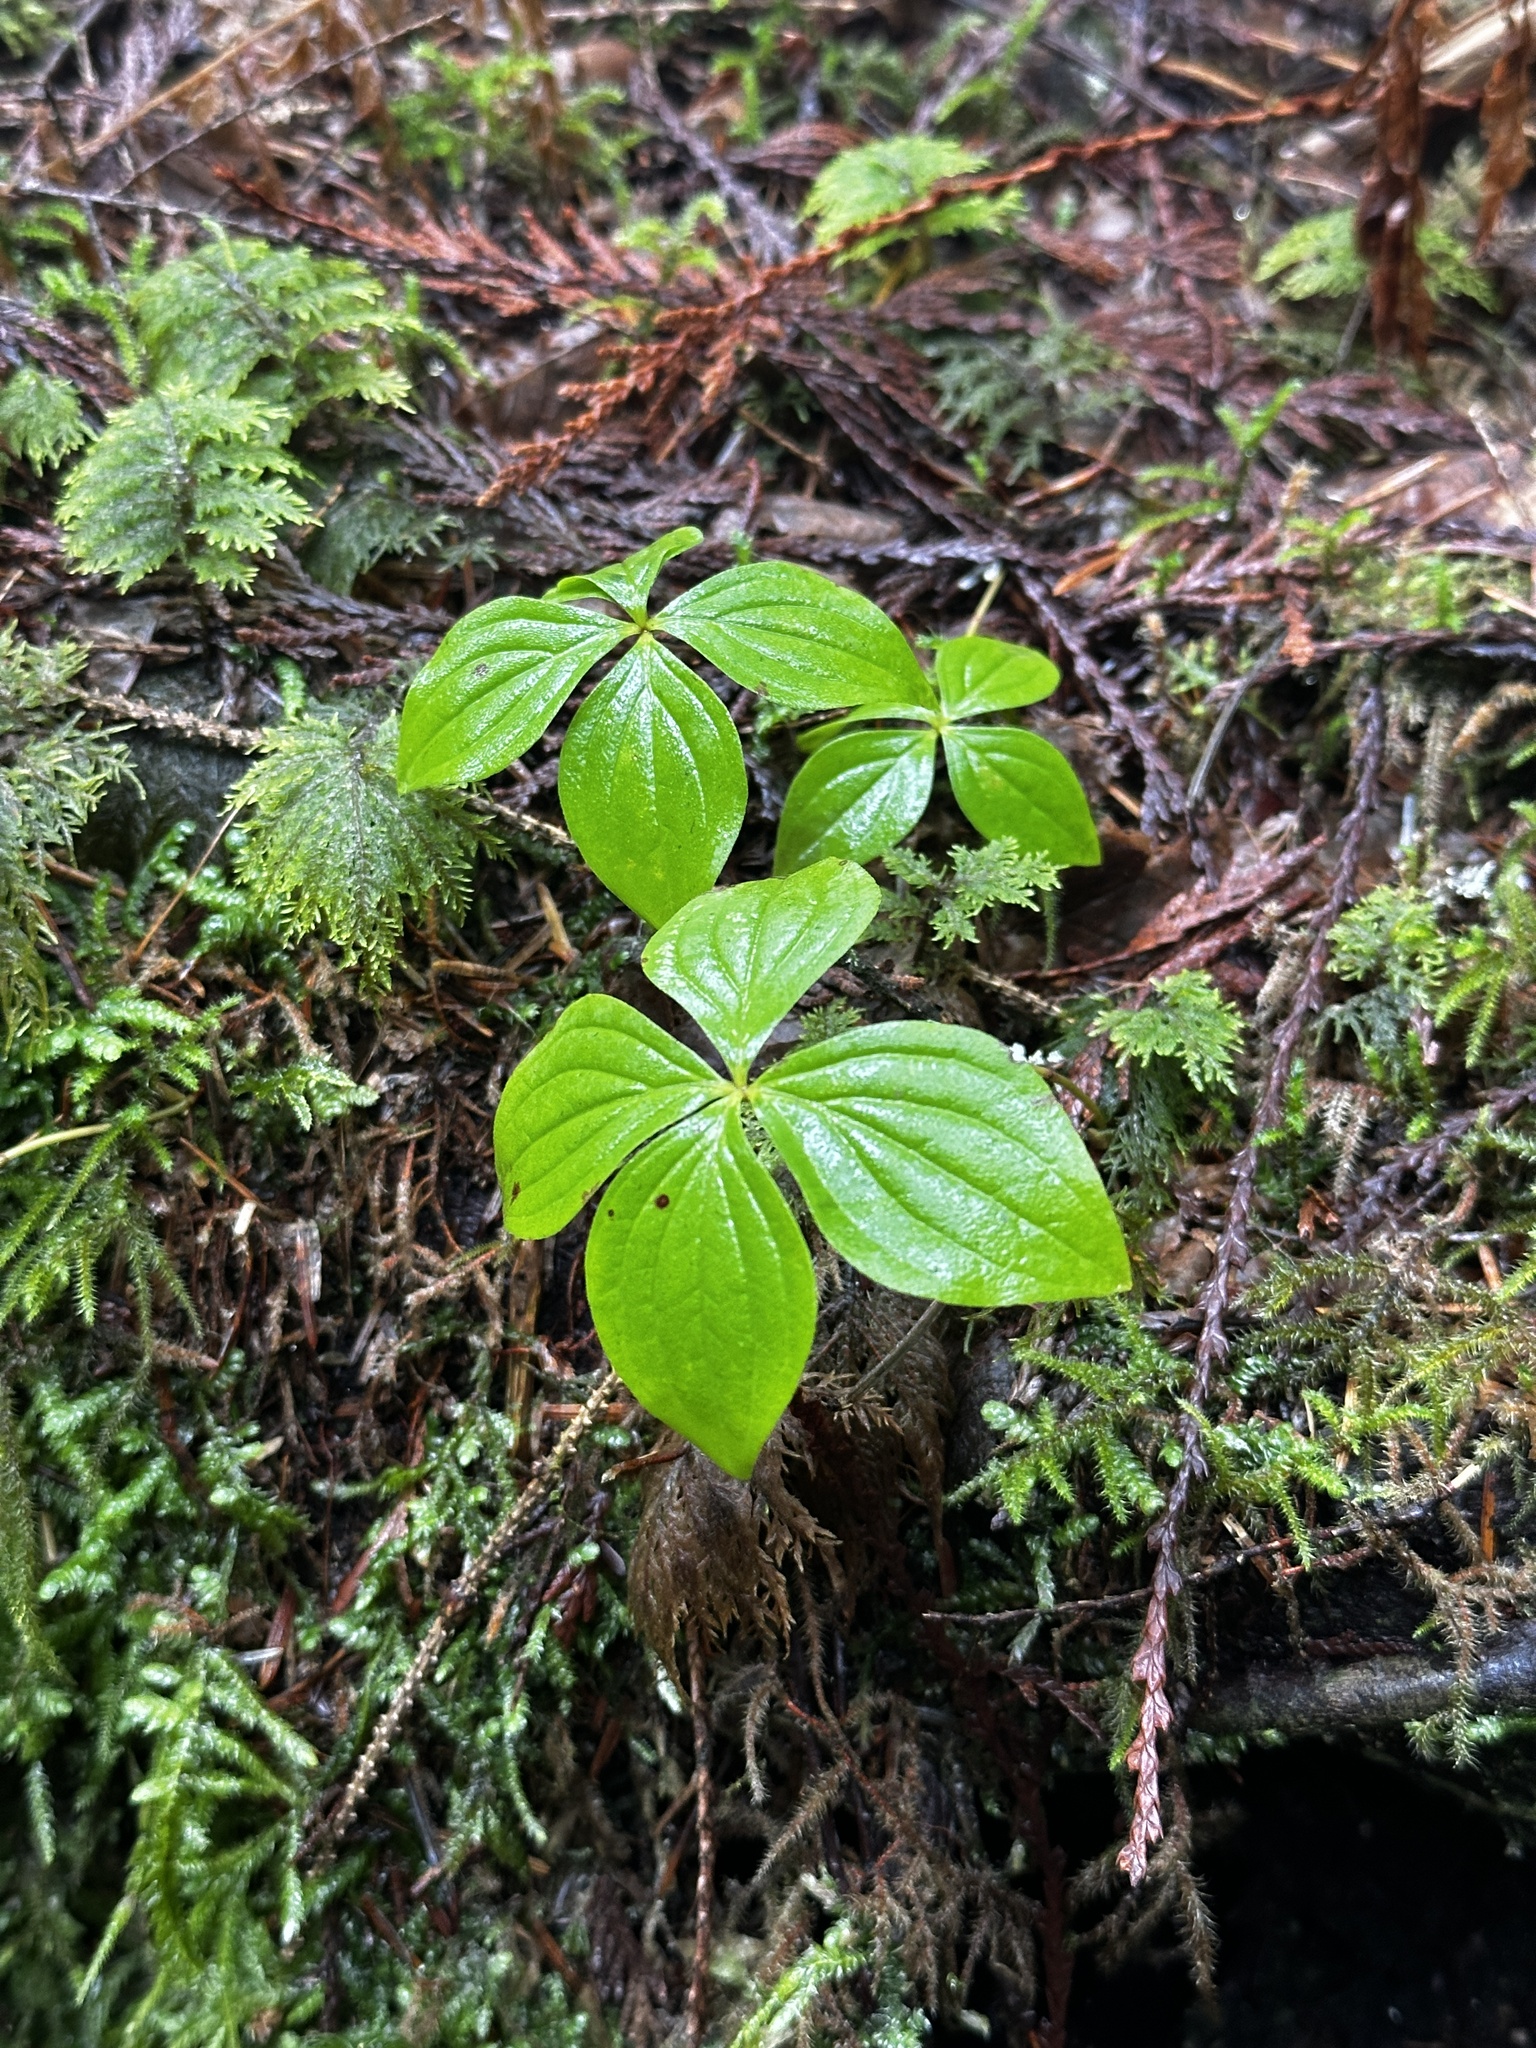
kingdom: Plantae
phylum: Tracheophyta
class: Magnoliopsida
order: Cornales
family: Cornaceae
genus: Cornus
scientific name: Cornus unalaschkensis
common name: Alaska bunchberry
